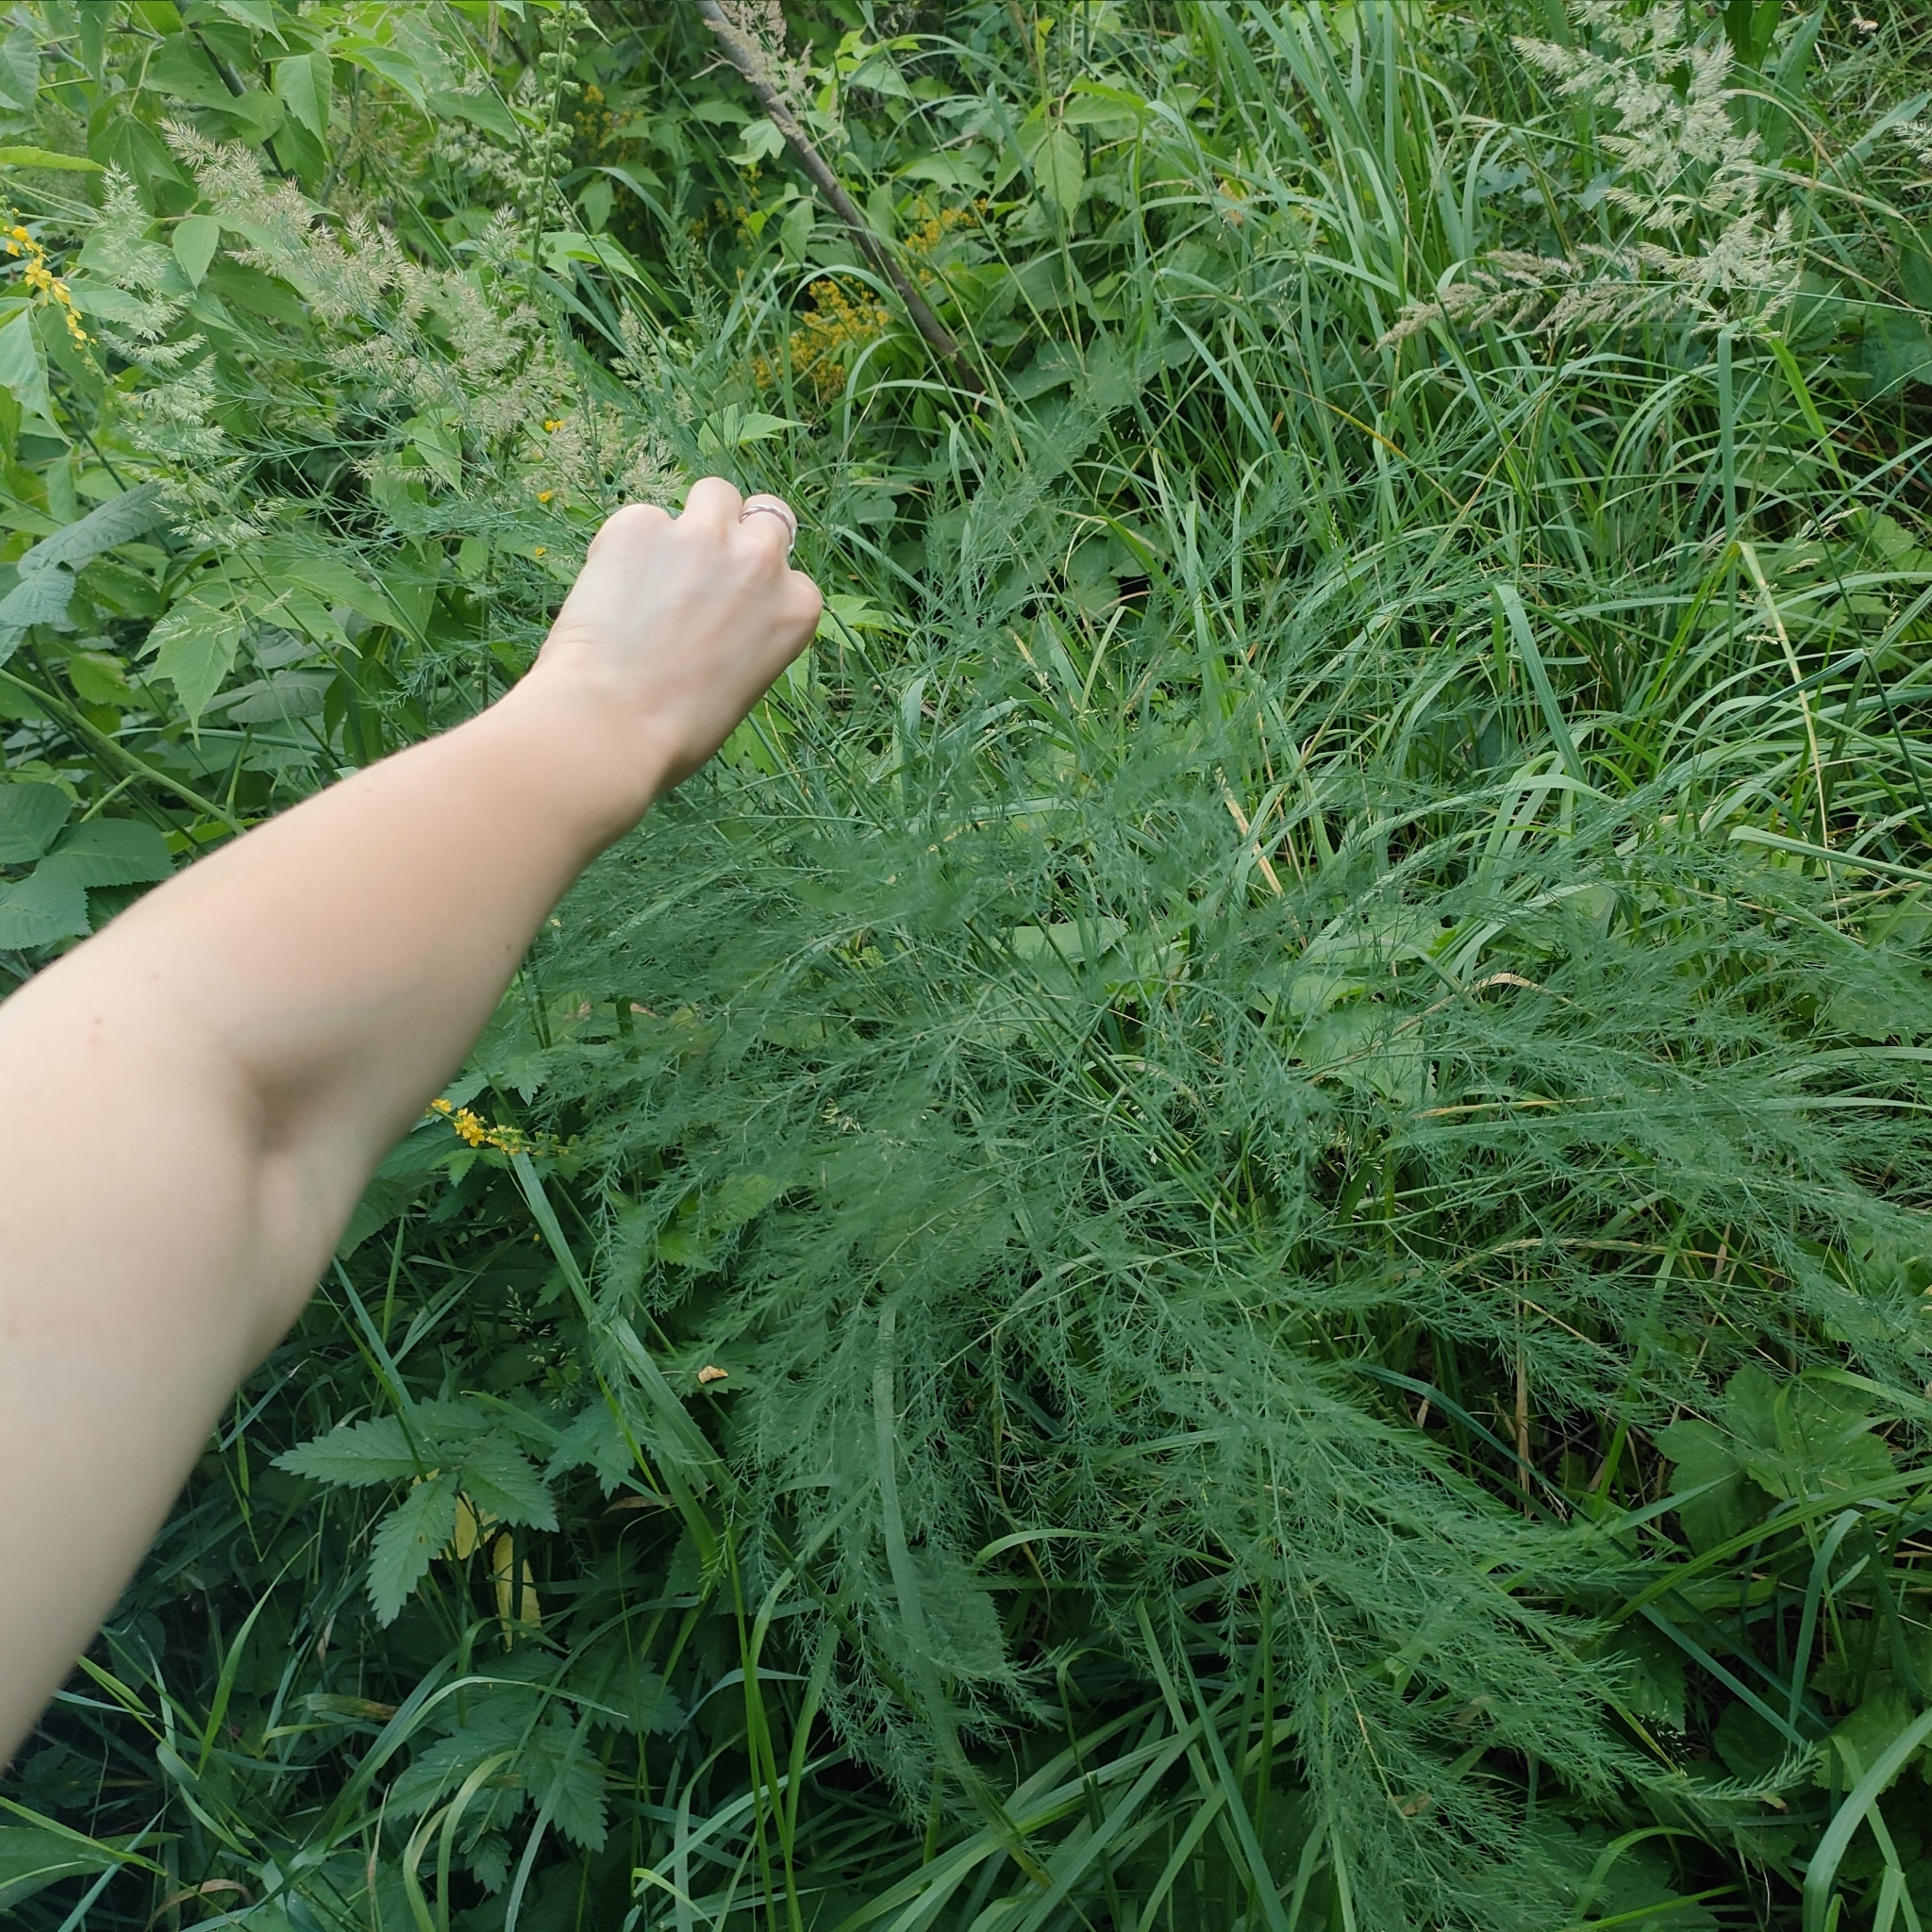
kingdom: Plantae
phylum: Tracheophyta
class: Liliopsida
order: Asparagales
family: Asparagaceae
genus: Asparagus
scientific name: Asparagus officinalis
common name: Garden asparagus
